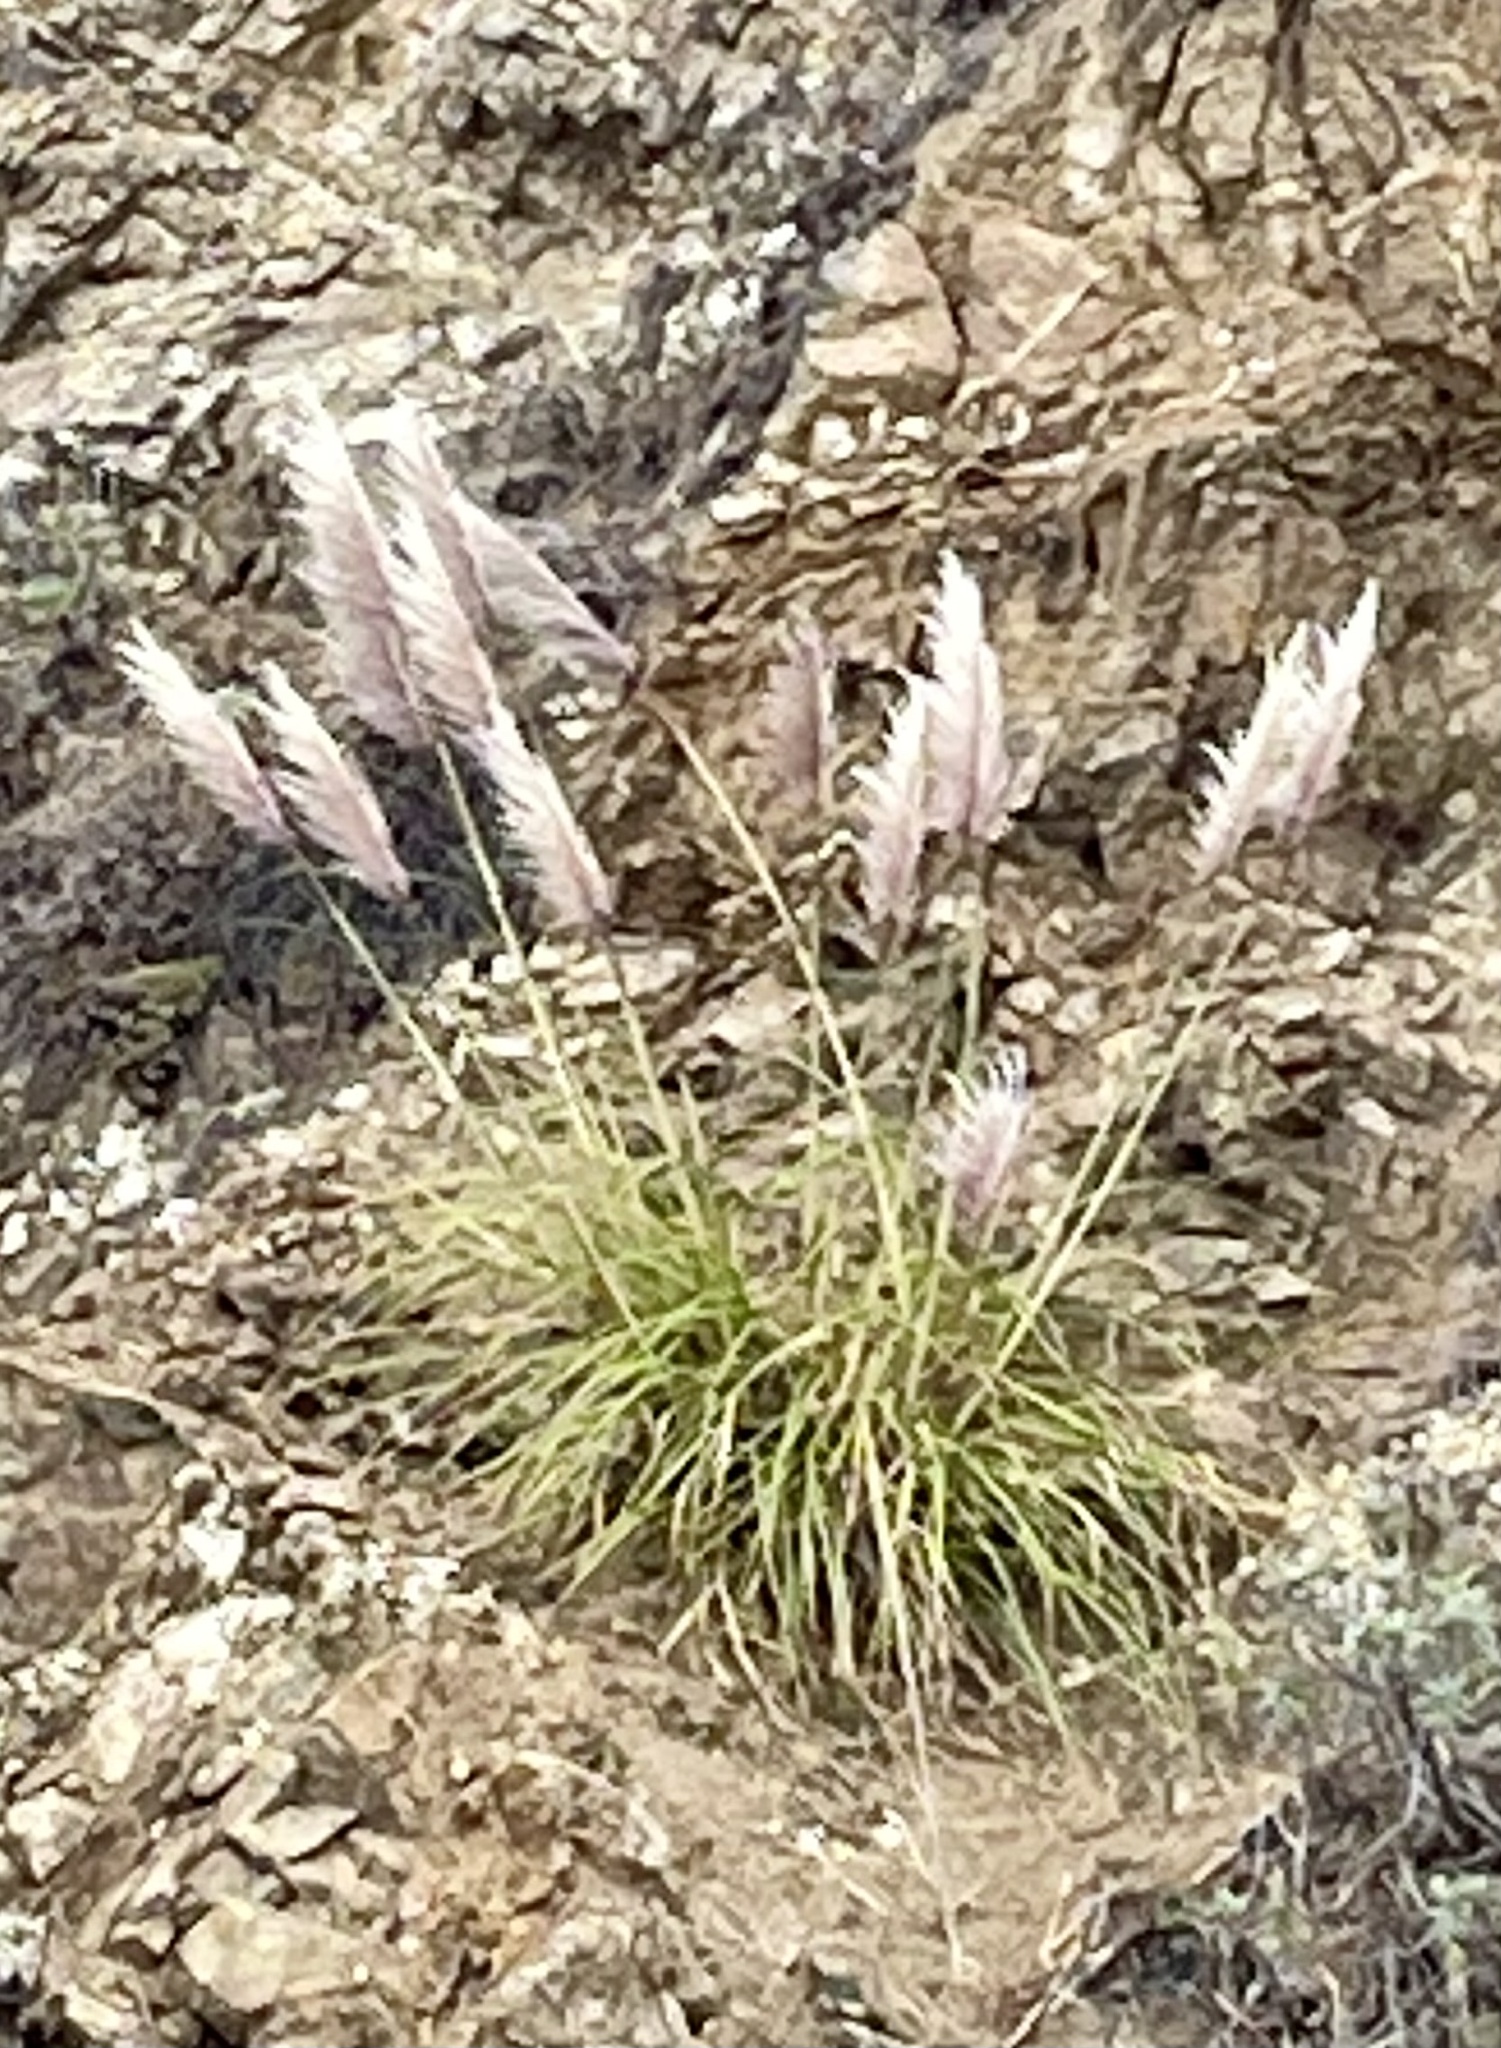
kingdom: Plantae
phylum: Tracheophyta
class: Liliopsida
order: Poales
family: Poaceae
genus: Cortaderia
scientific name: Cortaderia jubata
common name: Purple pampas grass
